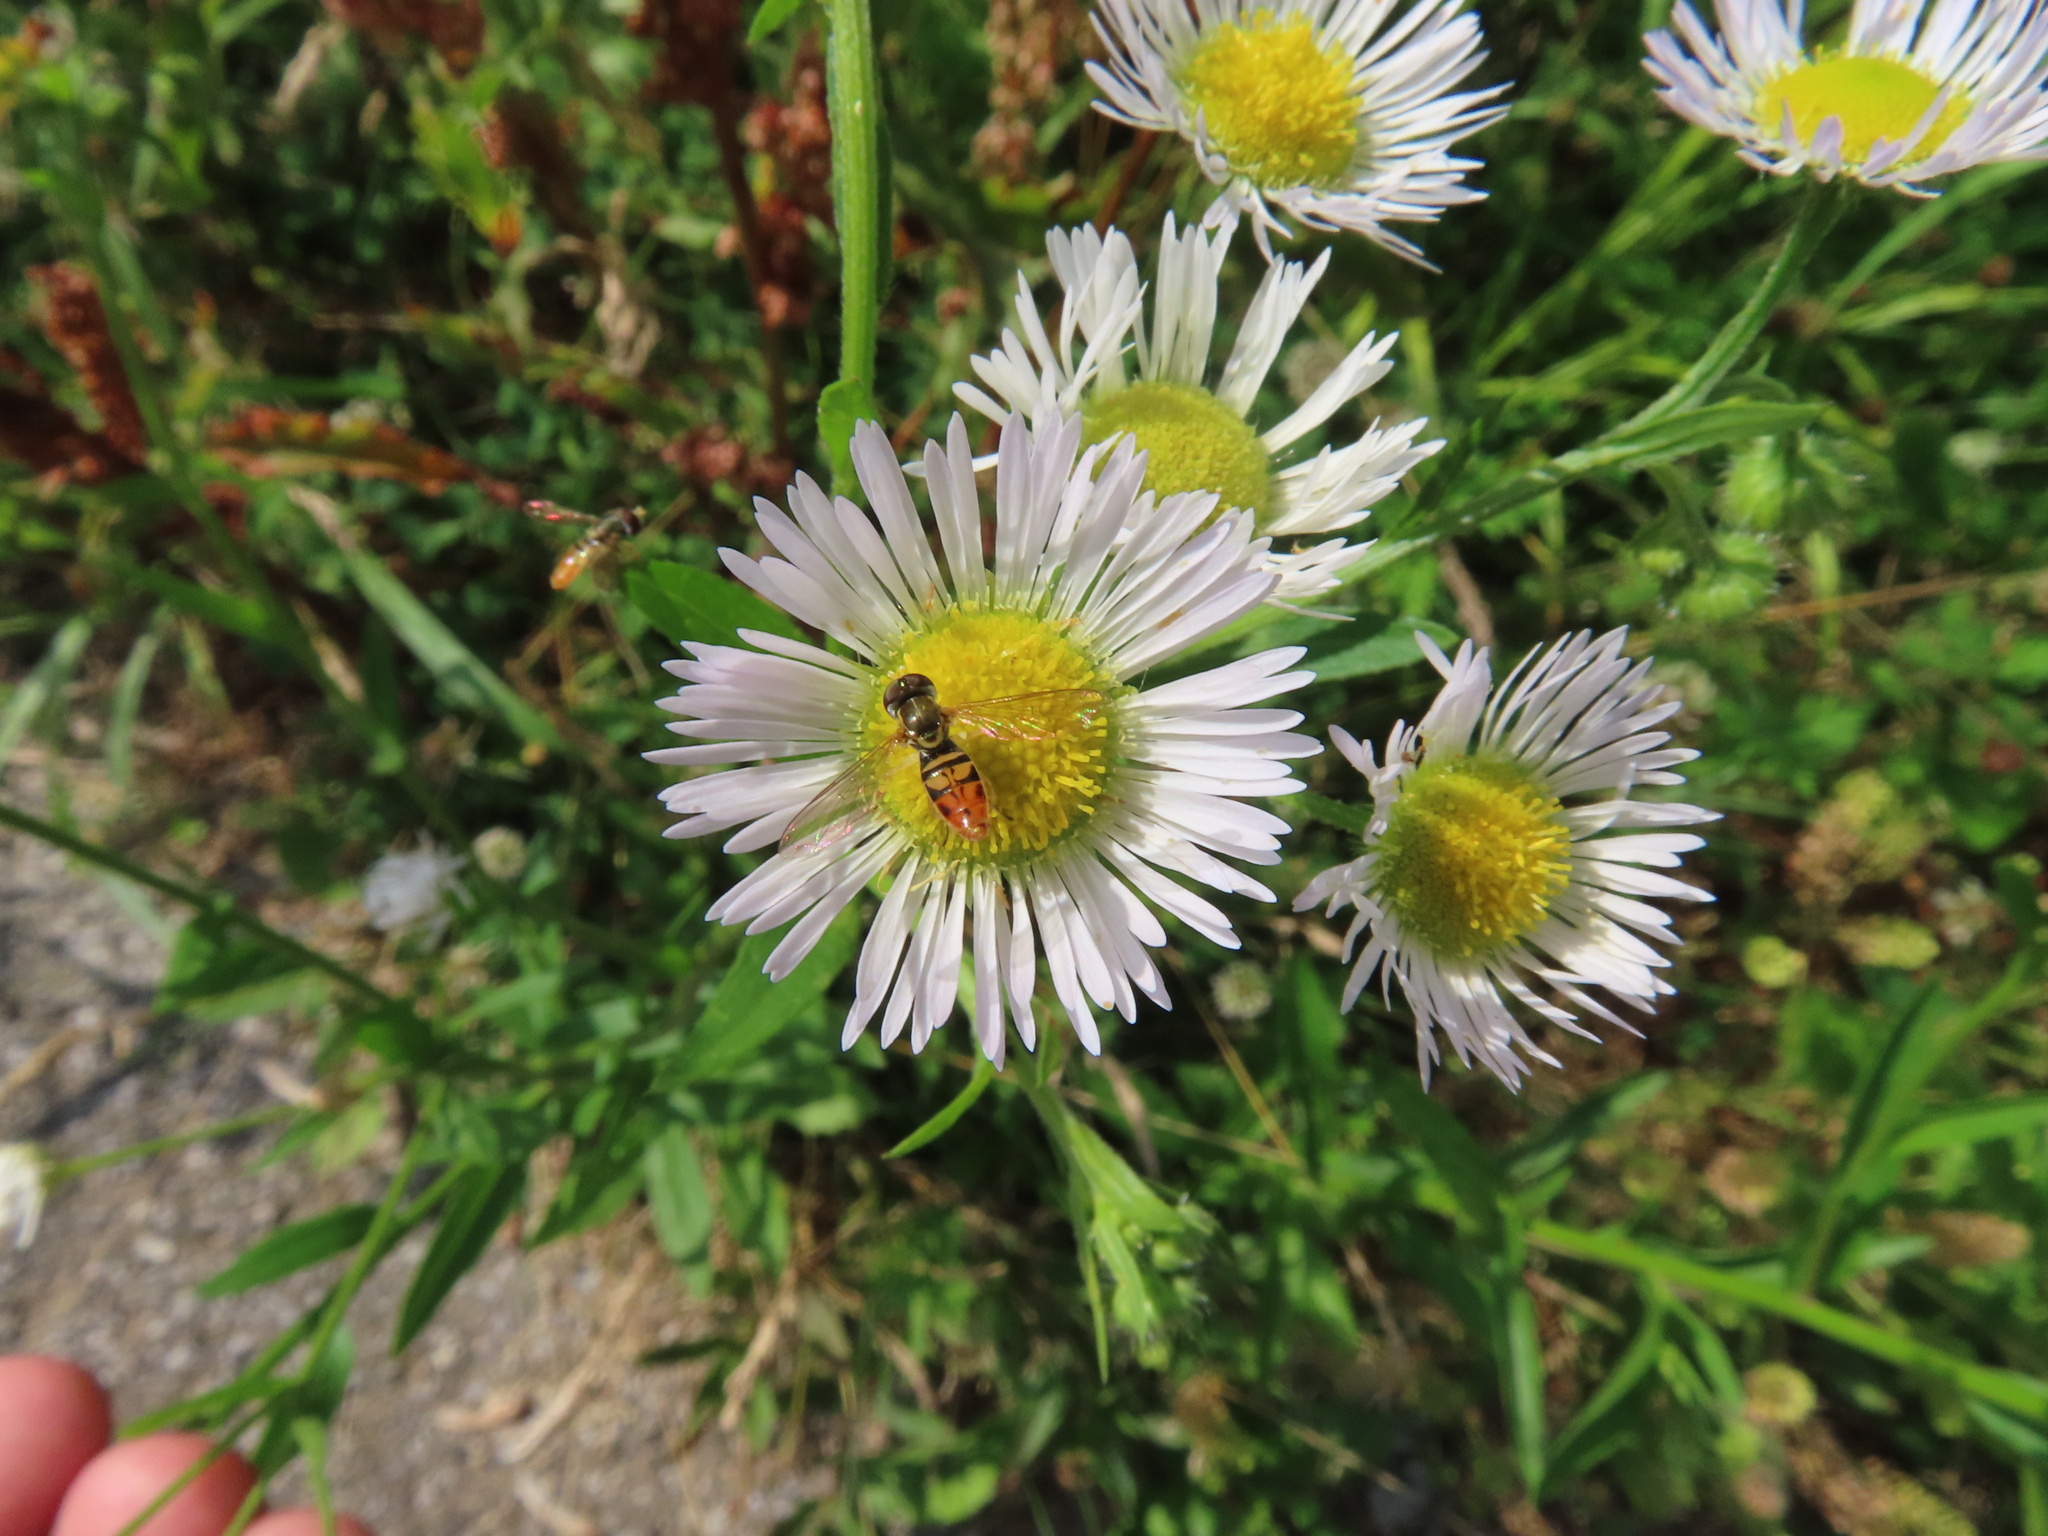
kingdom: Animalia
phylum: Arthropoda
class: Insecta
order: Diptera
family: Syrphidae
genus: Toxomerus
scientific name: Toxomerus marginatus
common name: Syrphid fly
